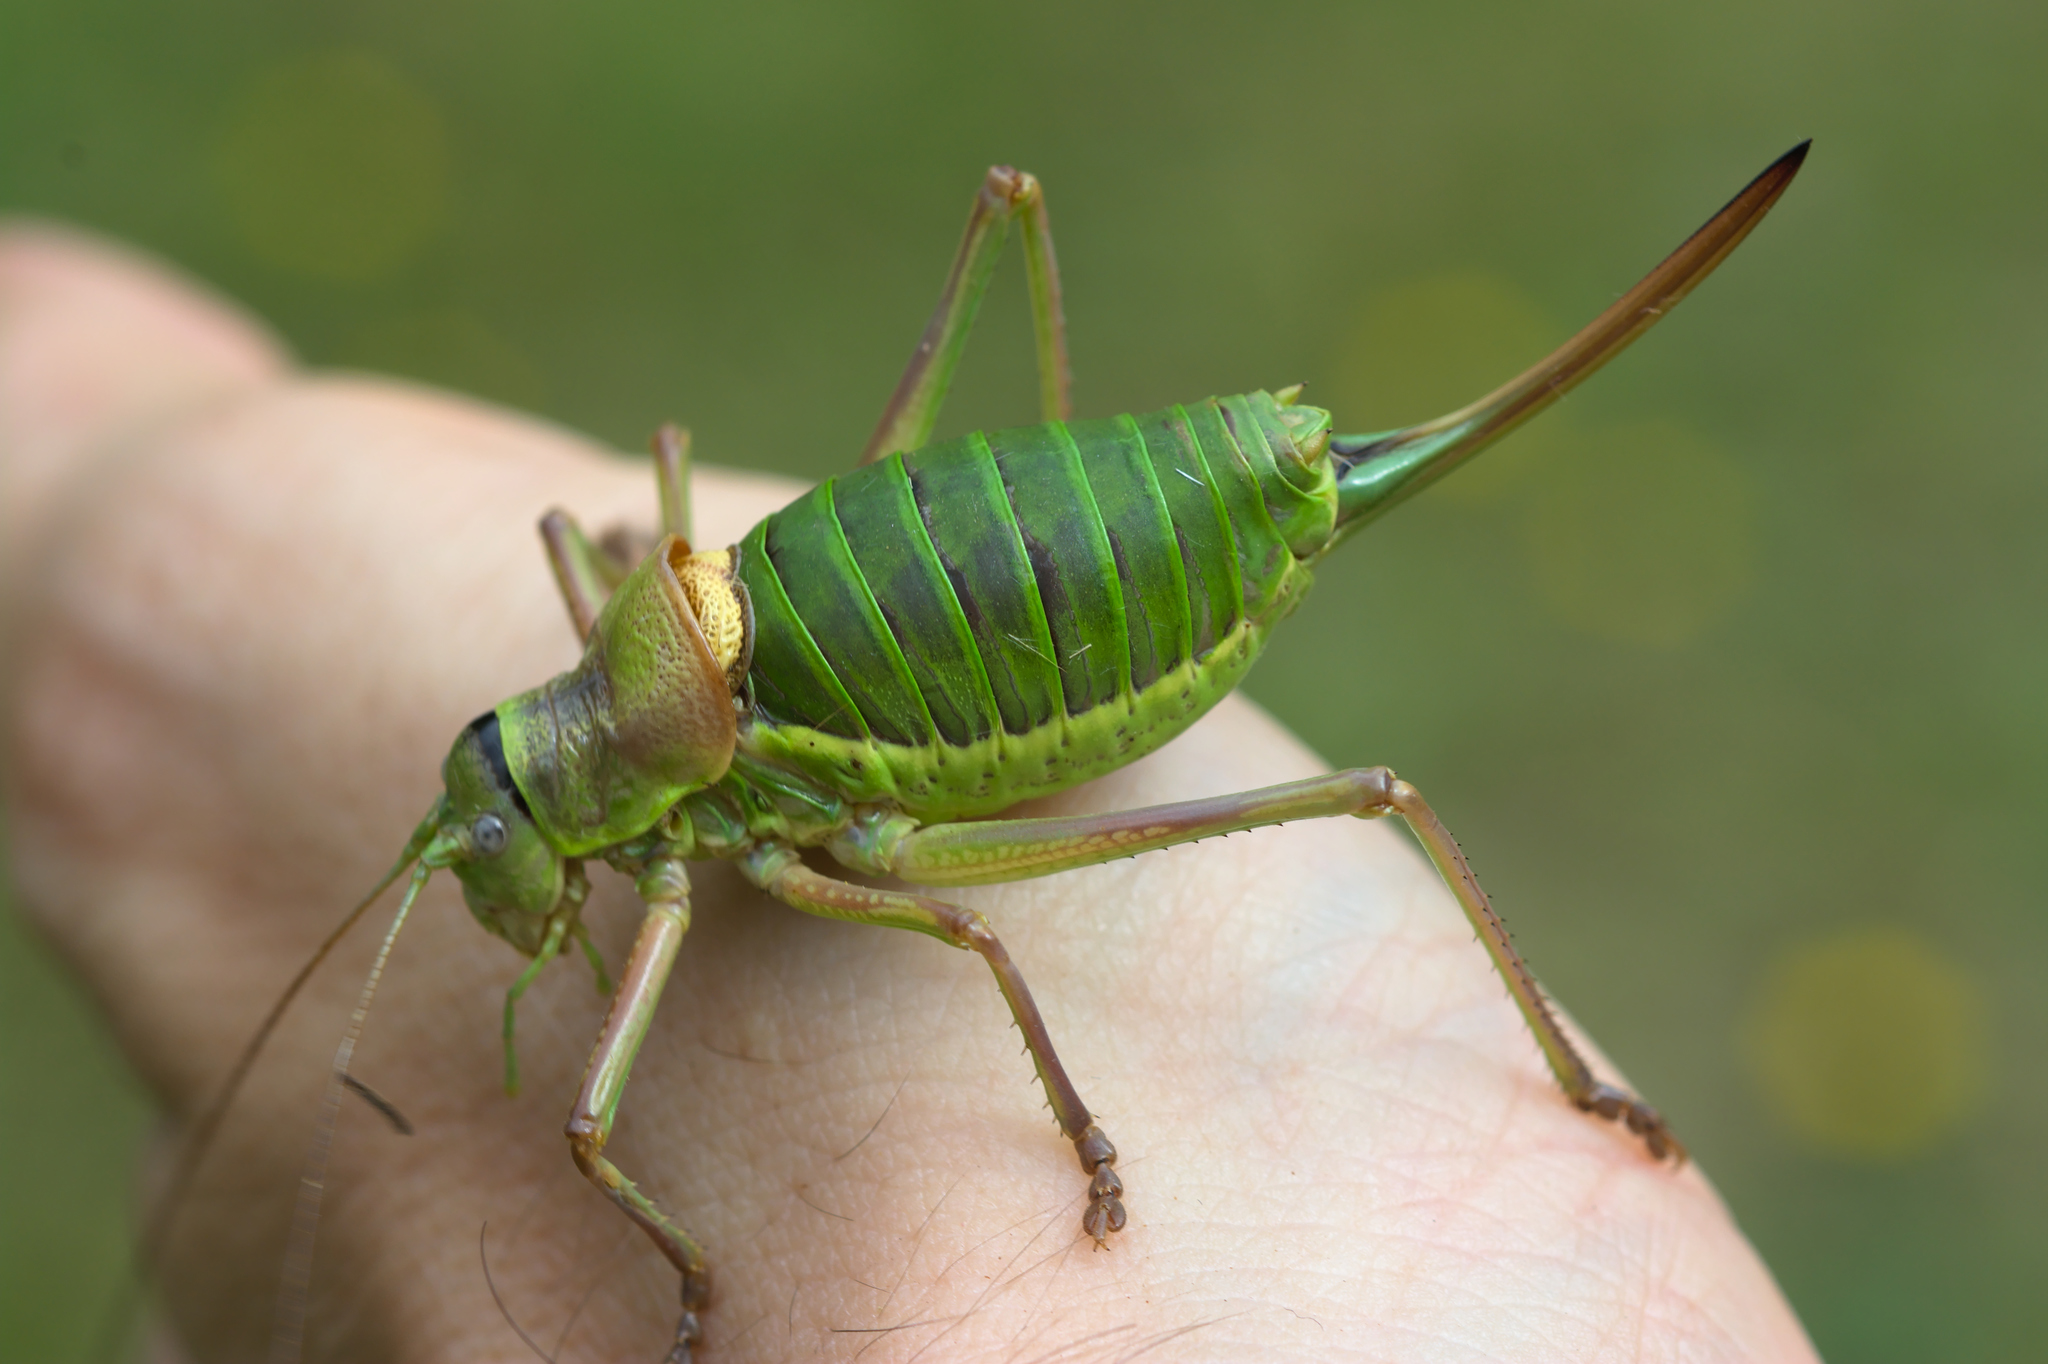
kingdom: Animalia
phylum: Arthropoda
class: Insecta
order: Orthoptera
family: Tettigoniidae
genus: Ephippiger
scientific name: Ephippiger diurnus
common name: Western saddle bush-cricket
